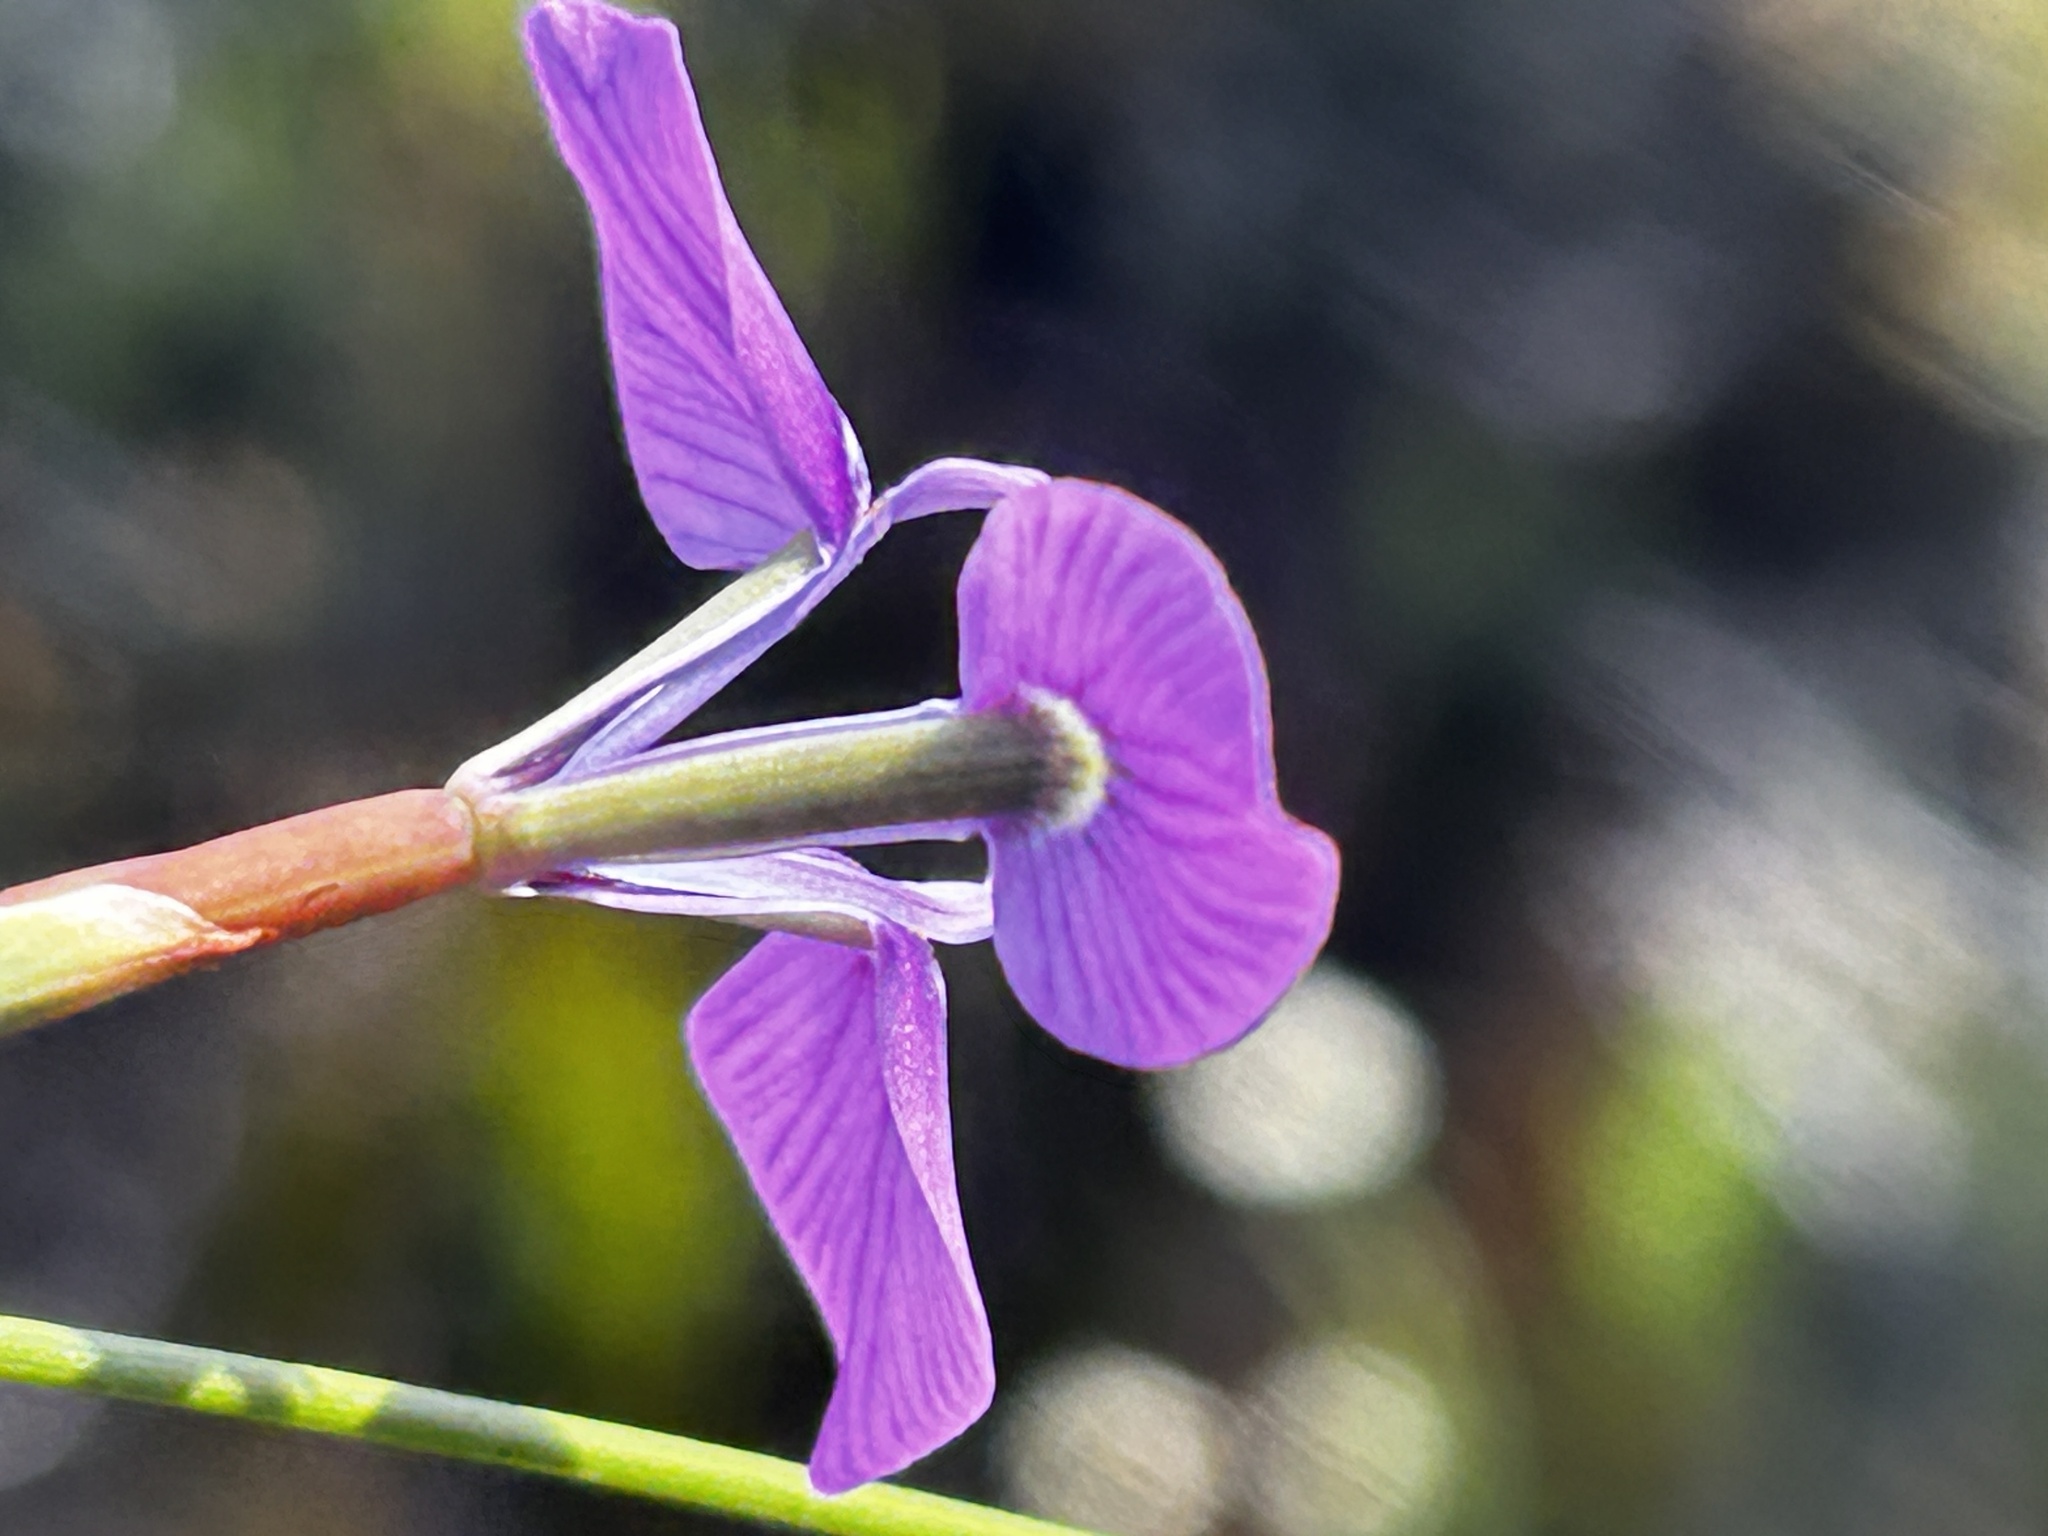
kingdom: Plantae
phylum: Tracheophyta
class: Liliopsida
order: Asparagales
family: Iridaceae
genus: Moraea
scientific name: Moraea tripetala
